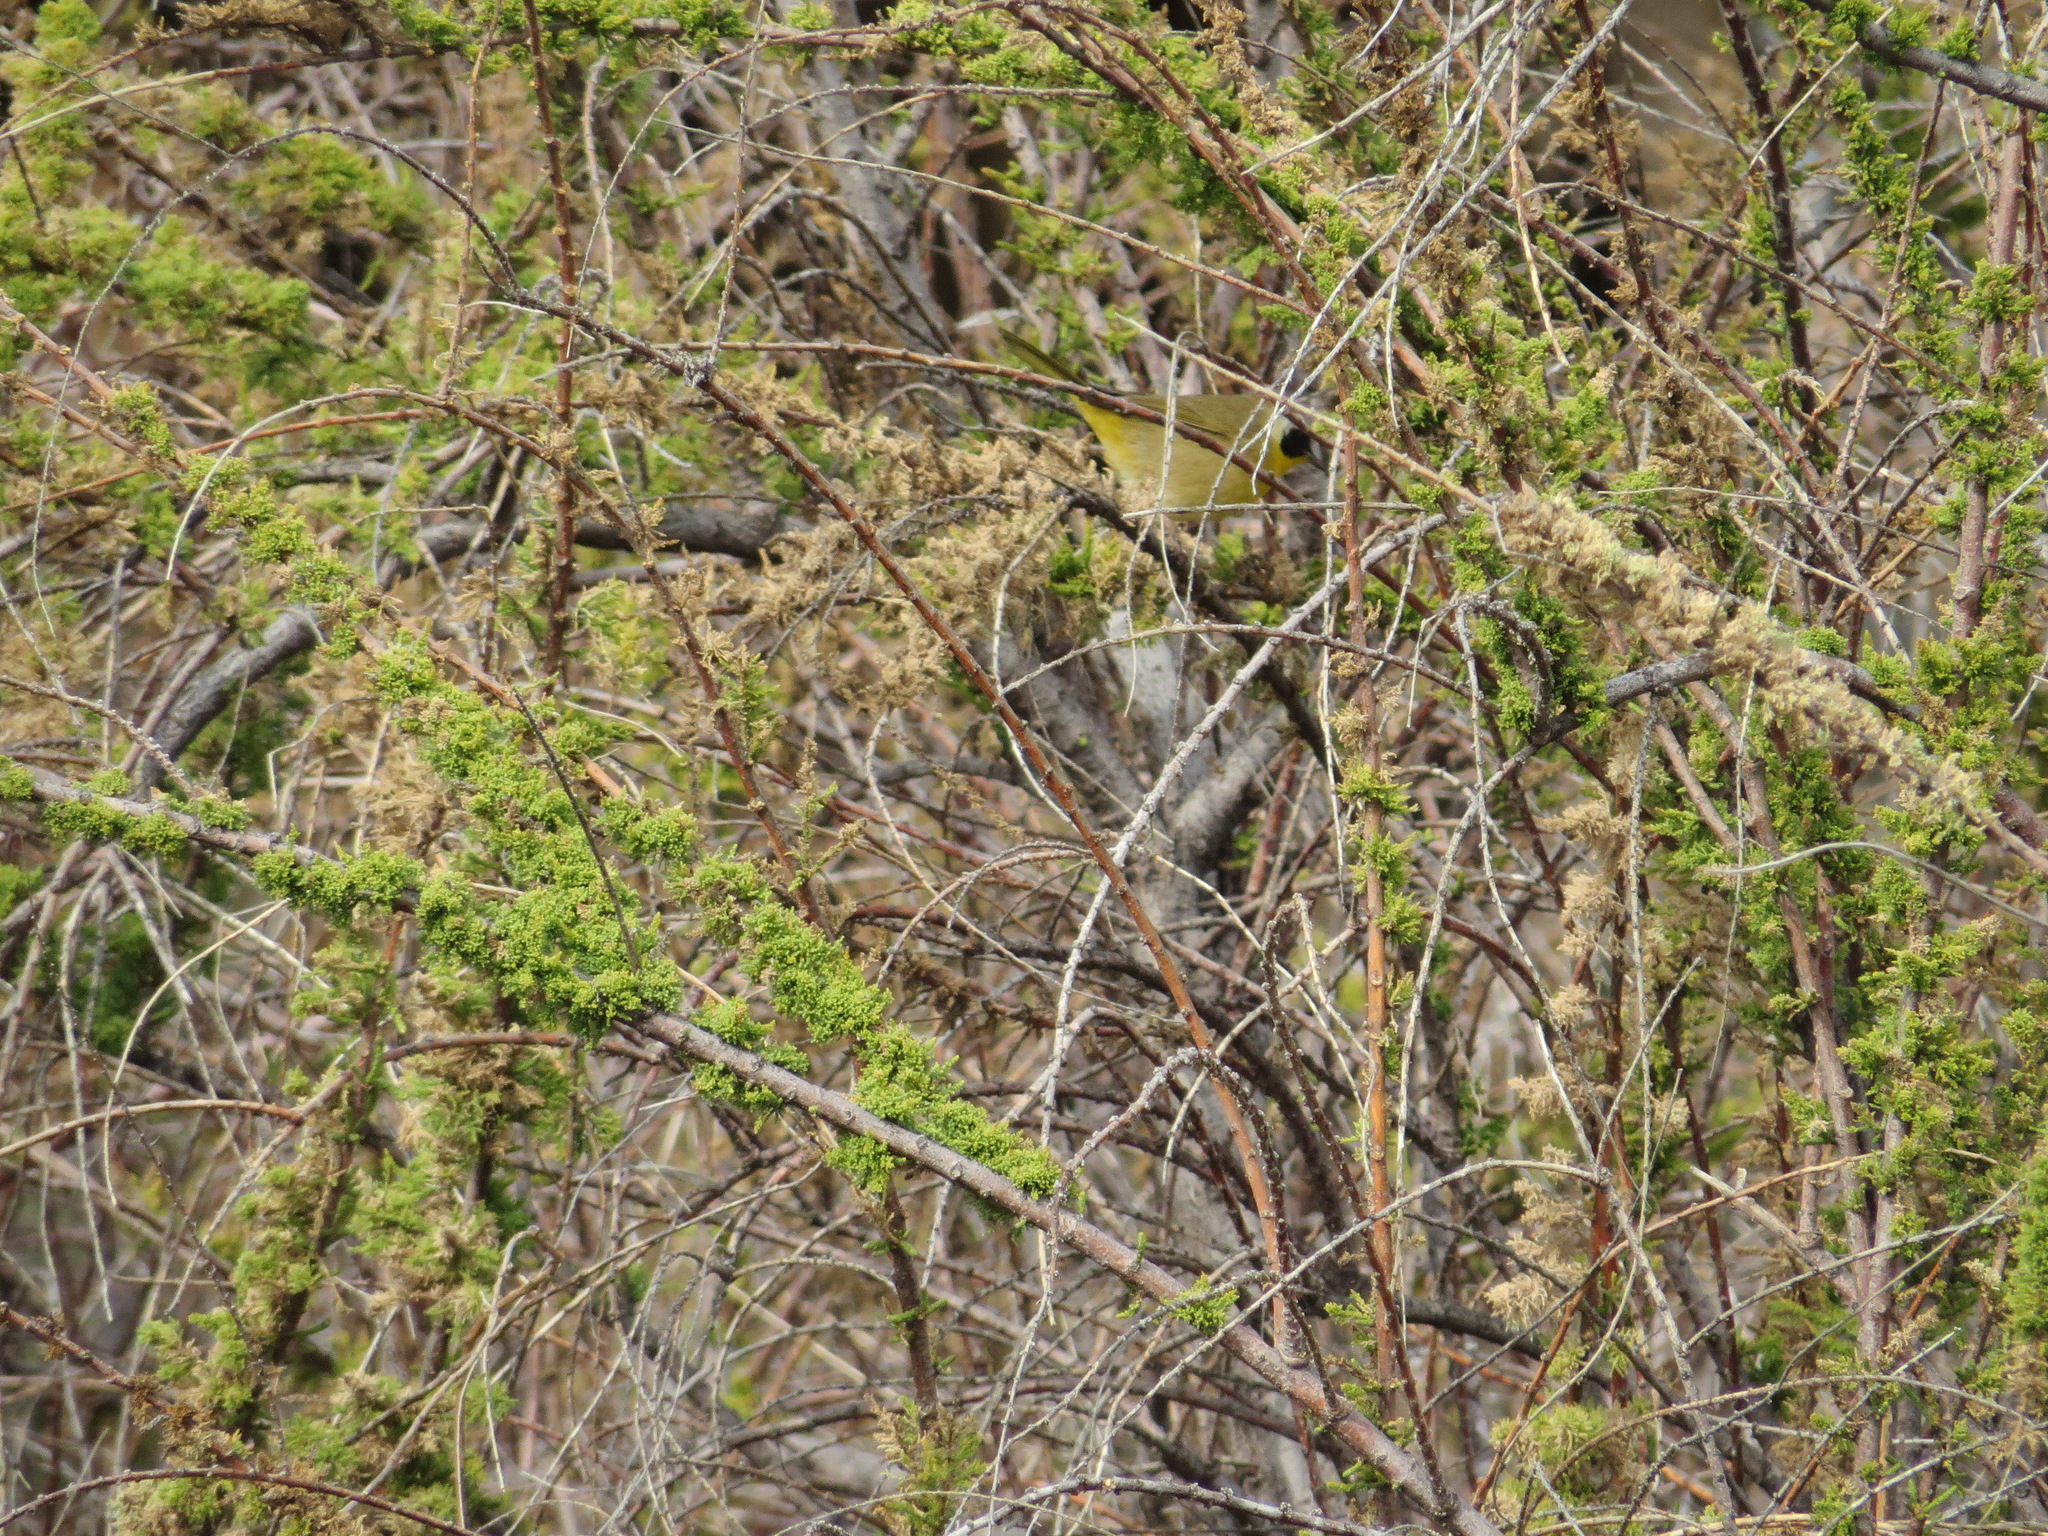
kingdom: Animalia
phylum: Chordata
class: Aves
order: Passeriformes
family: Parulidae
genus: Geothlypis
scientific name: Geothlypis trichas
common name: Common yellowthroat
